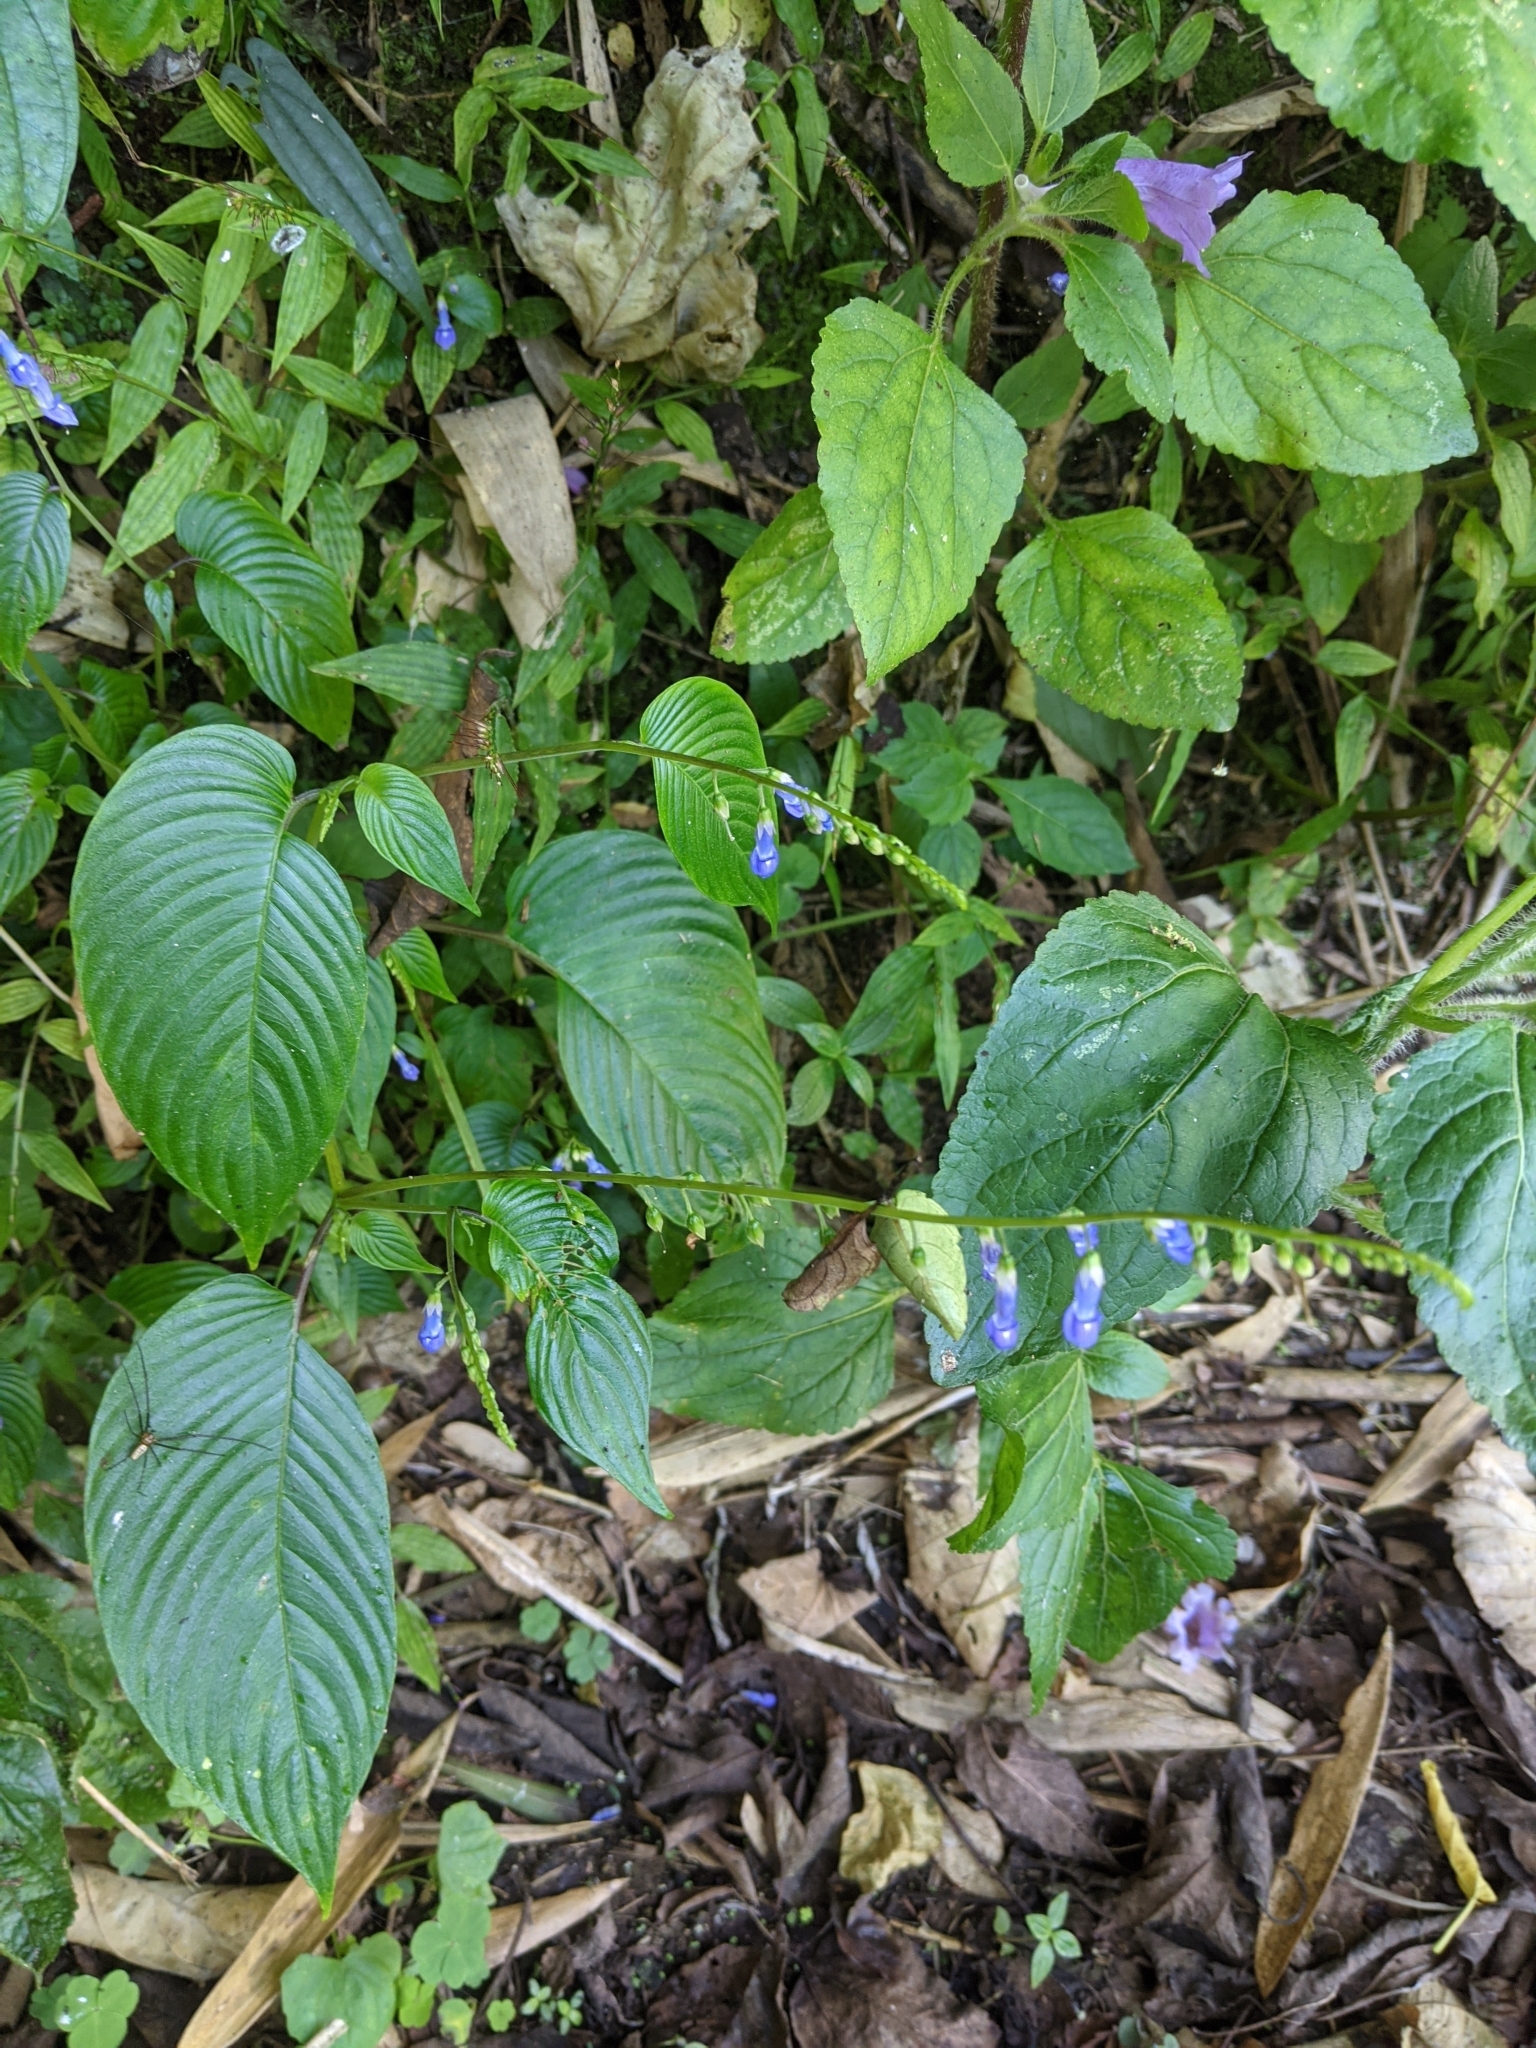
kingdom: Plantae
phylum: Tracheophyta
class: Magnoliopsida
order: Lamiales
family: Gesneriaceae
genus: Rhynchoglossum
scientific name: Rhynchoglossum obliquum
